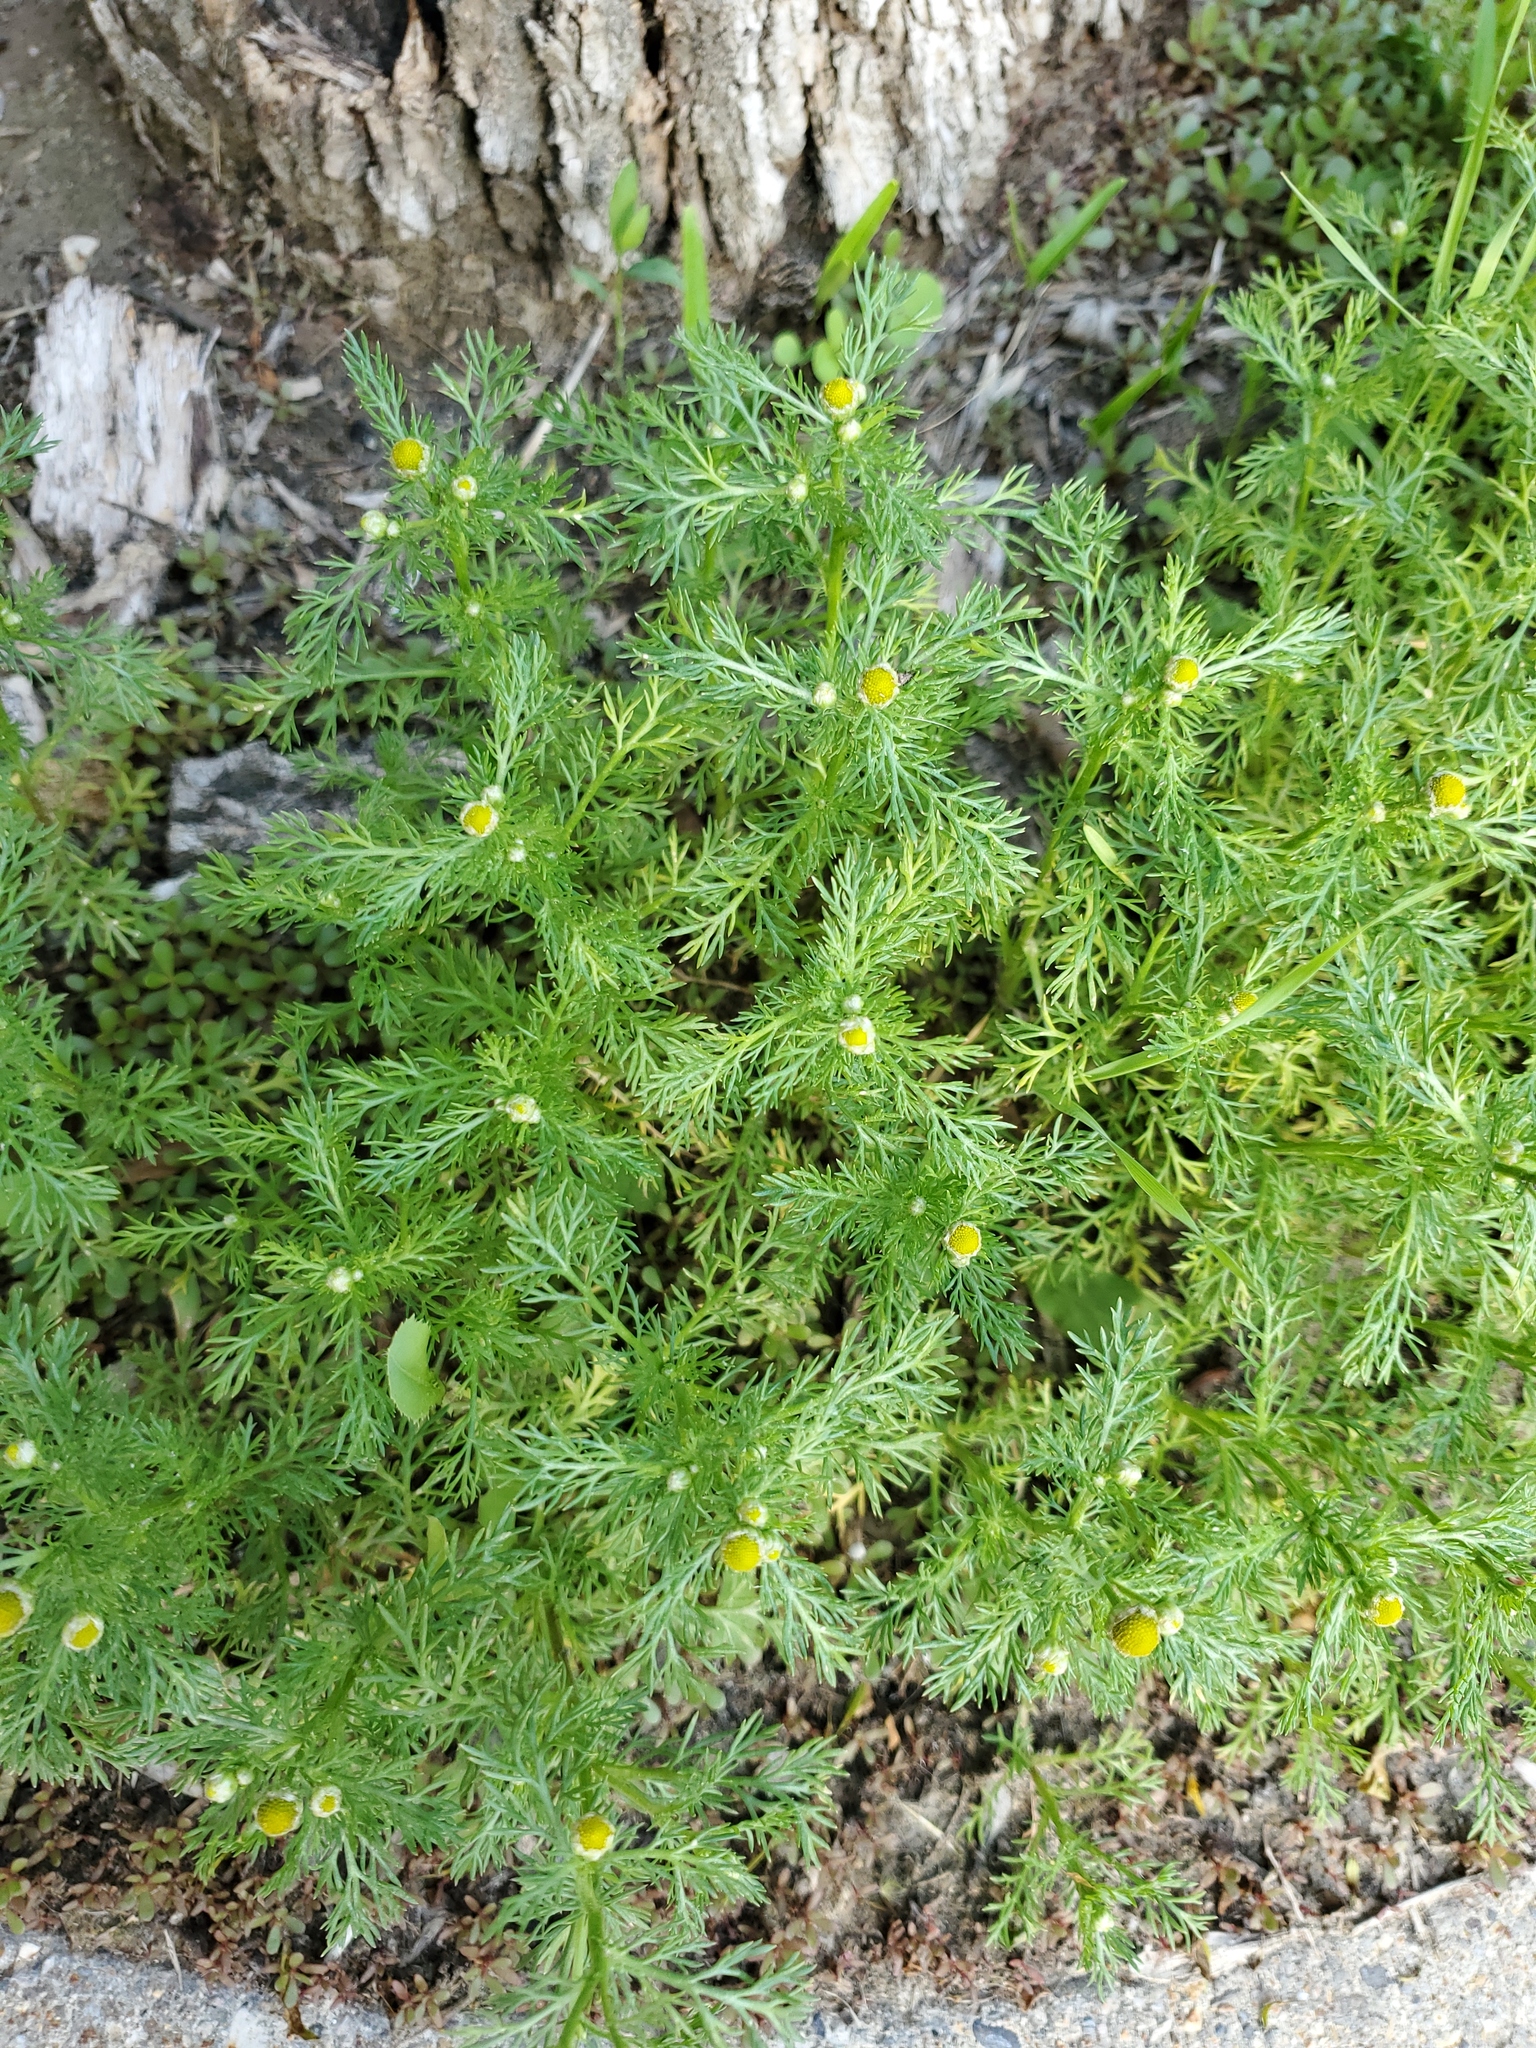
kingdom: Plantae
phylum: Tracheophyta
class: Magnoliopsida
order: Asterales
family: Asteraceae
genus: Matricaria
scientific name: Matricaria discoidea
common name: Disc mayweed
